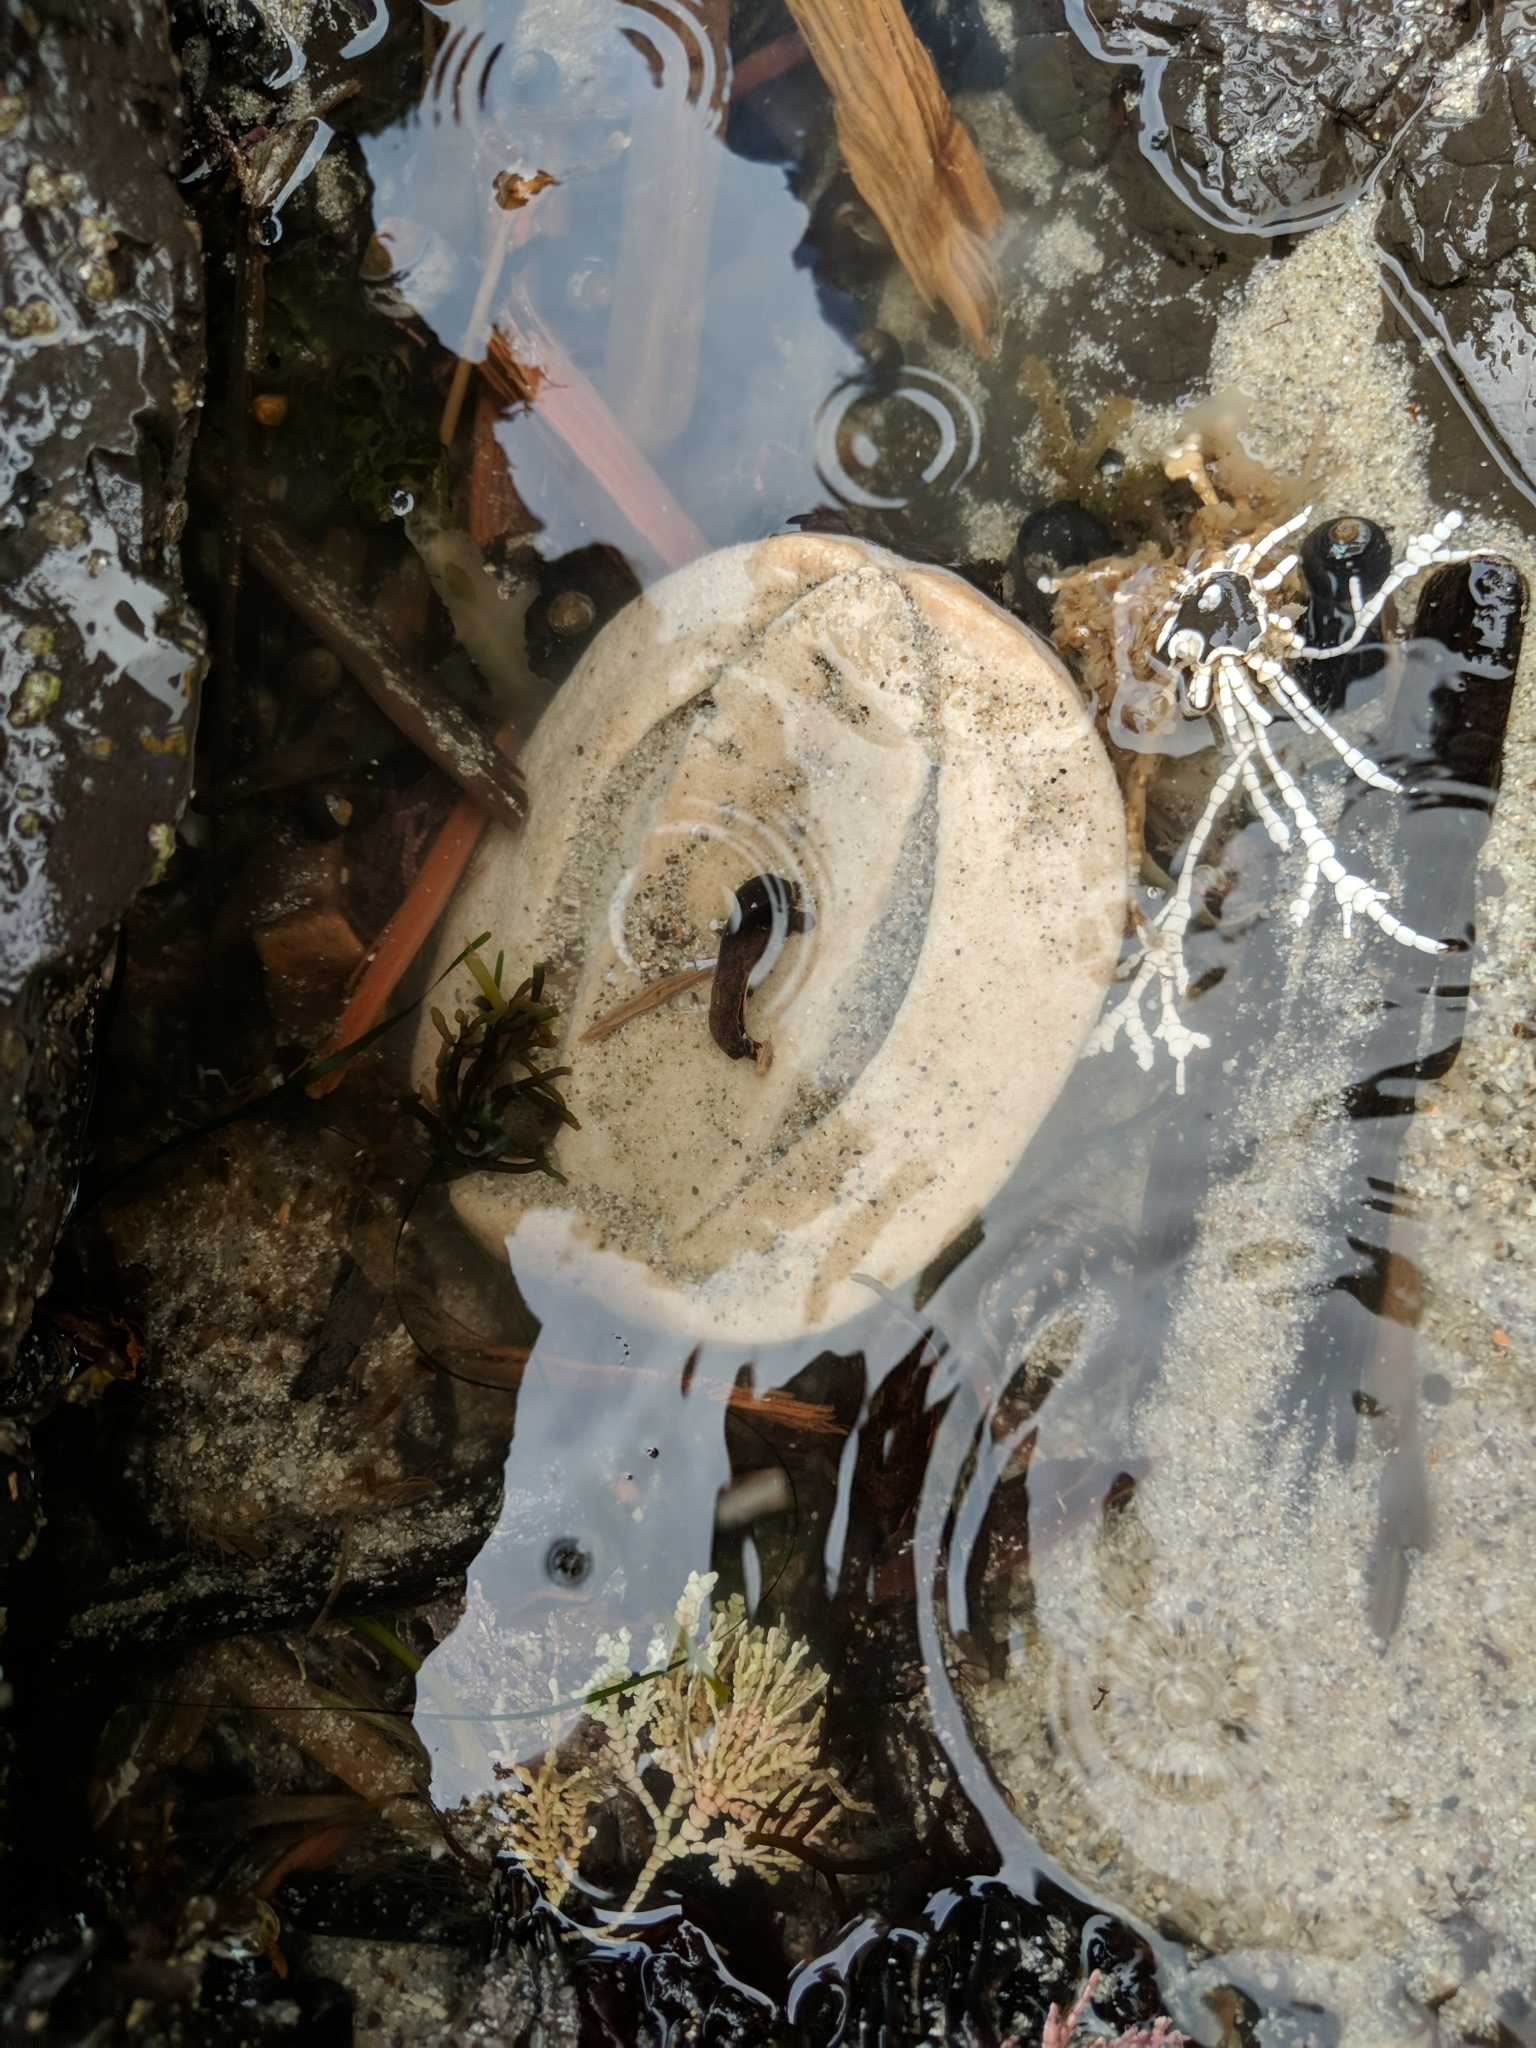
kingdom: Animalia
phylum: Mollusca
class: Polyplacophora
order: Chitonida
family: Acanthochitonidae
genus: Cryptochiton
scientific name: Cryptochiton stelleri
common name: Giant pacific chiton
